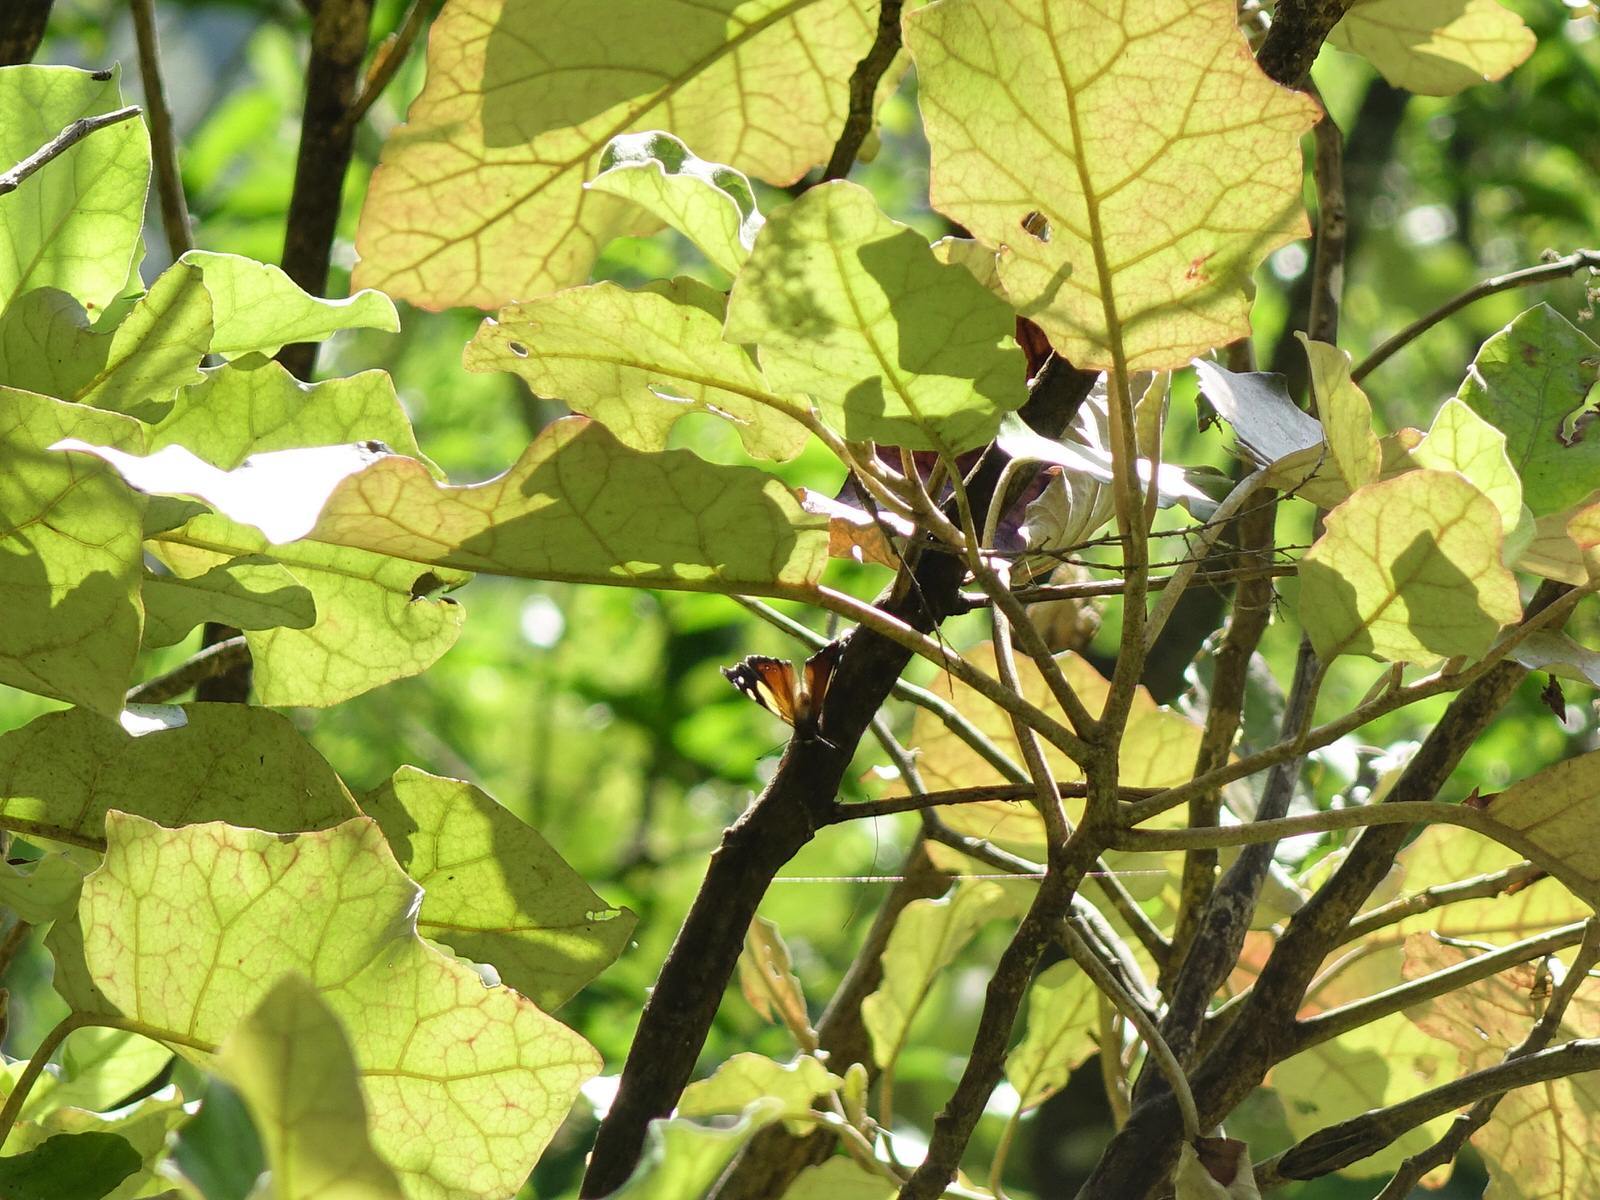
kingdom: Animalia
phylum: Arthropoda
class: Insecta
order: Lepidoptera
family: Nymphalidae
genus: Vanessa
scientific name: Vanessa itea
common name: Yellow admiral
